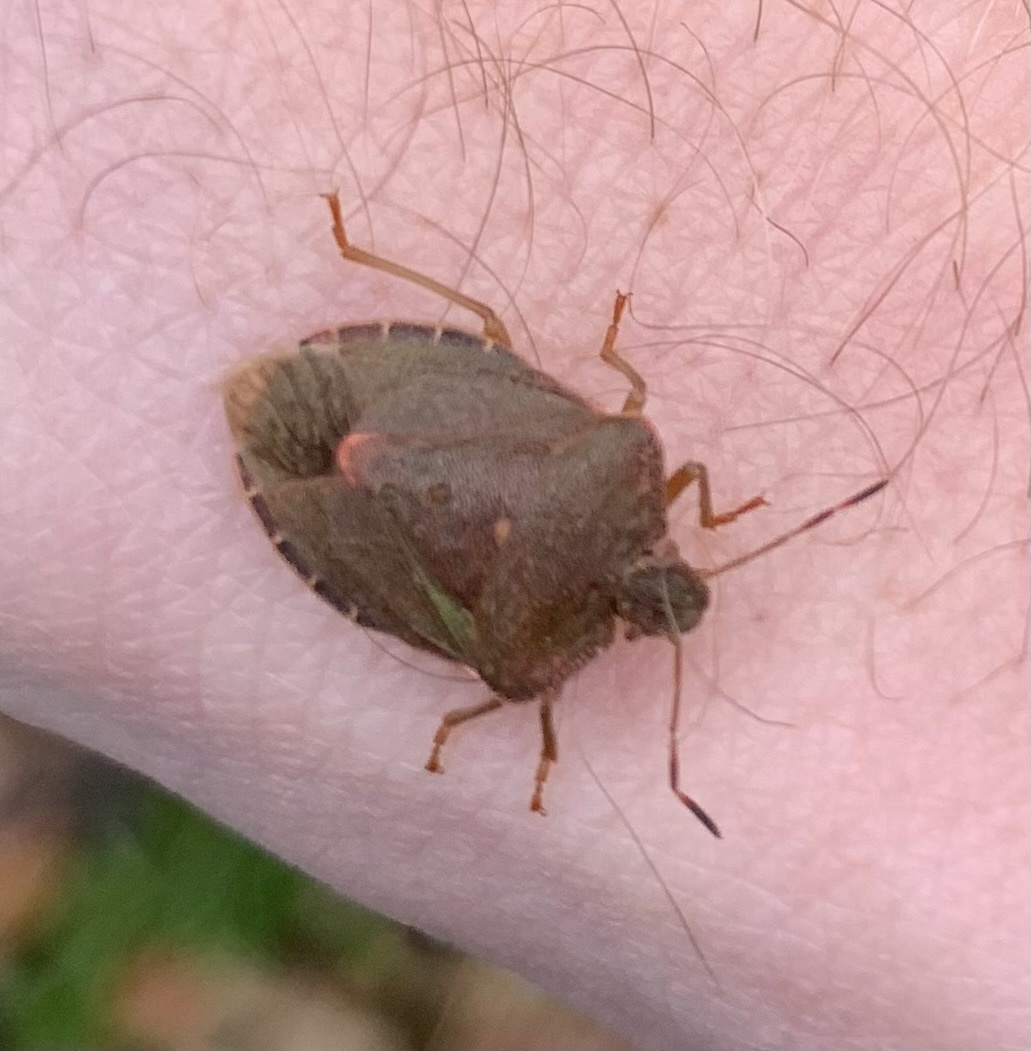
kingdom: Animalia
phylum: Arthropoda
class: Insecta
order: Hemiptera
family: Pentatomidae
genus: Palomena
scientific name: Palomena prasina
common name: Green shieldbug
